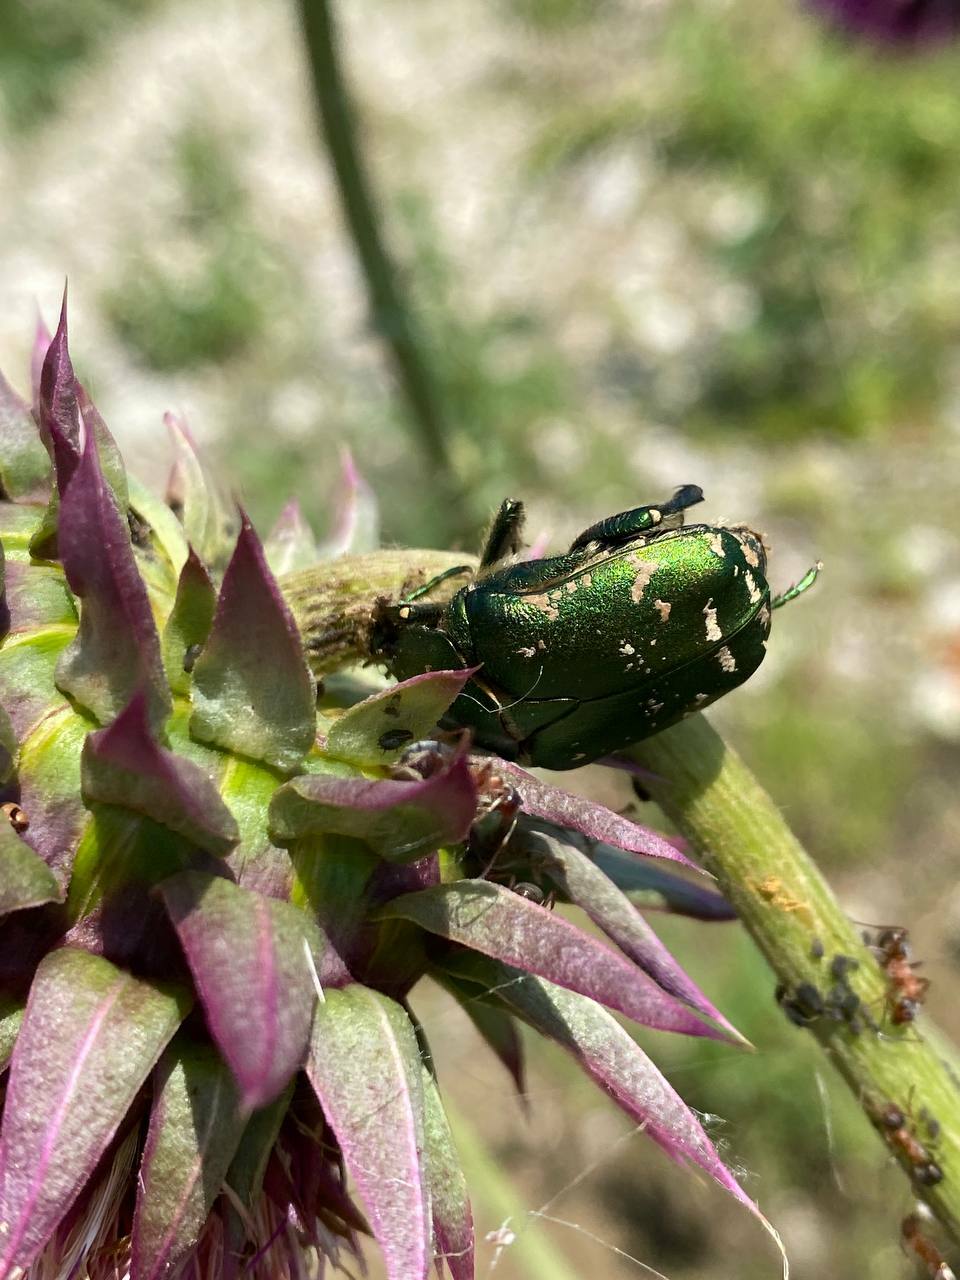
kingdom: Animalia
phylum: Arthropoda
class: Insecta
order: Coleoptera
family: Scarabaeidae
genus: Protaetia
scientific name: Protaetia ungarica
